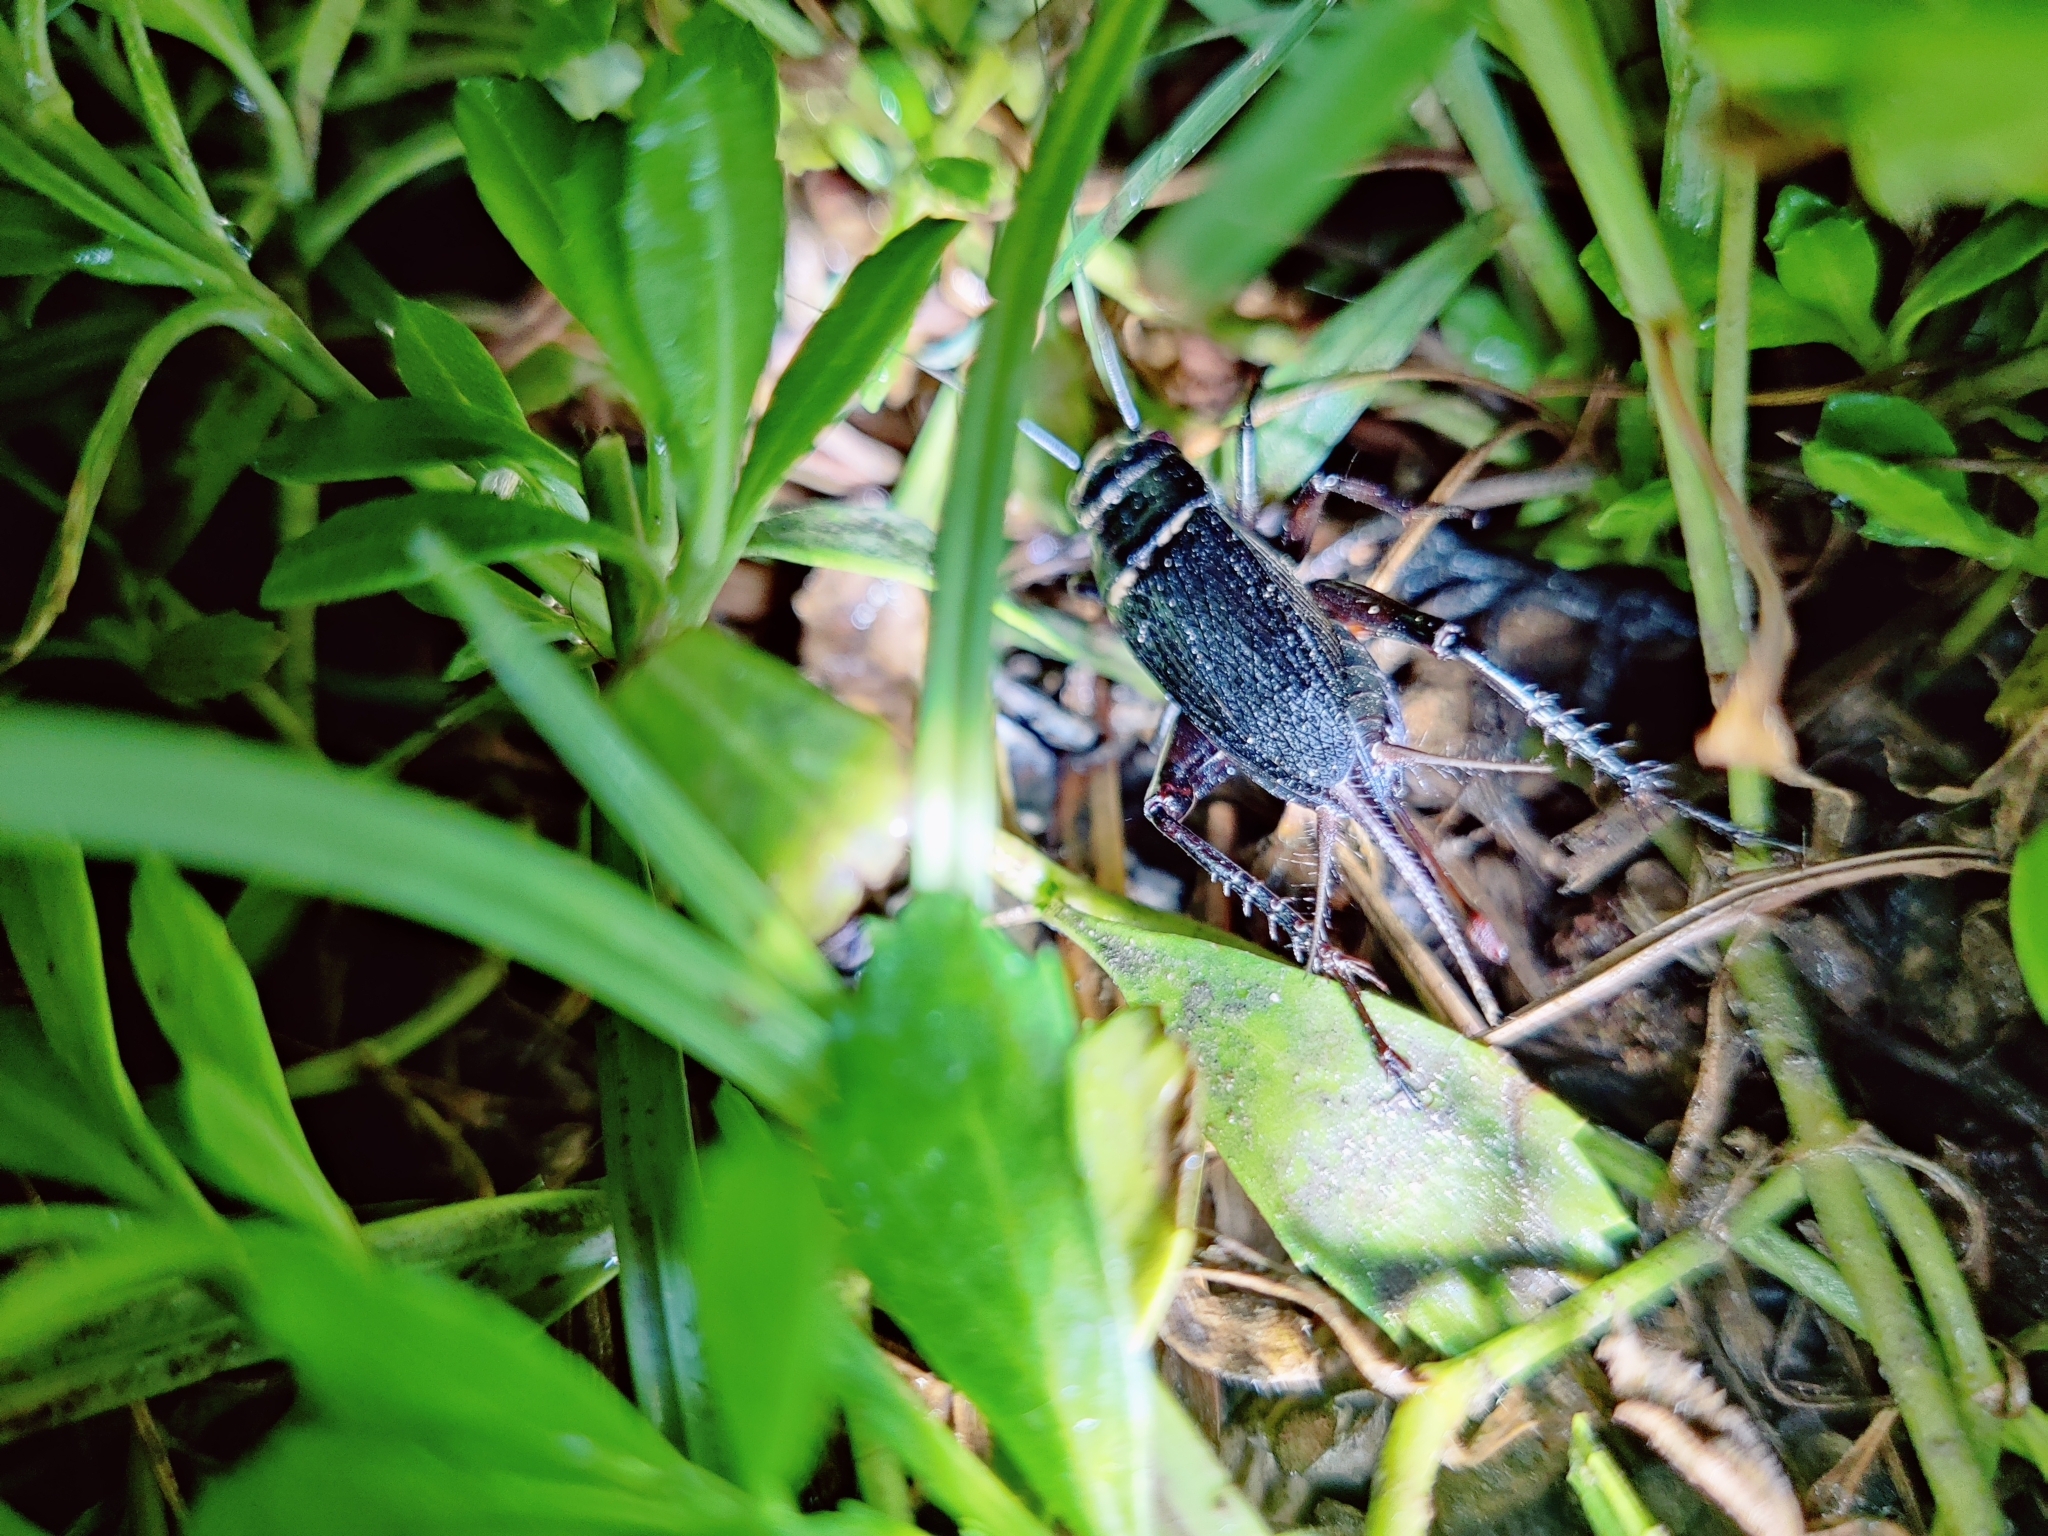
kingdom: Animalia
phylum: Arthropoda
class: Insecta
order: Orthoptera
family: Gryllidae
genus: Gryllus
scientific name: Gryllus bimaculatus
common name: Two-spotted cricket
